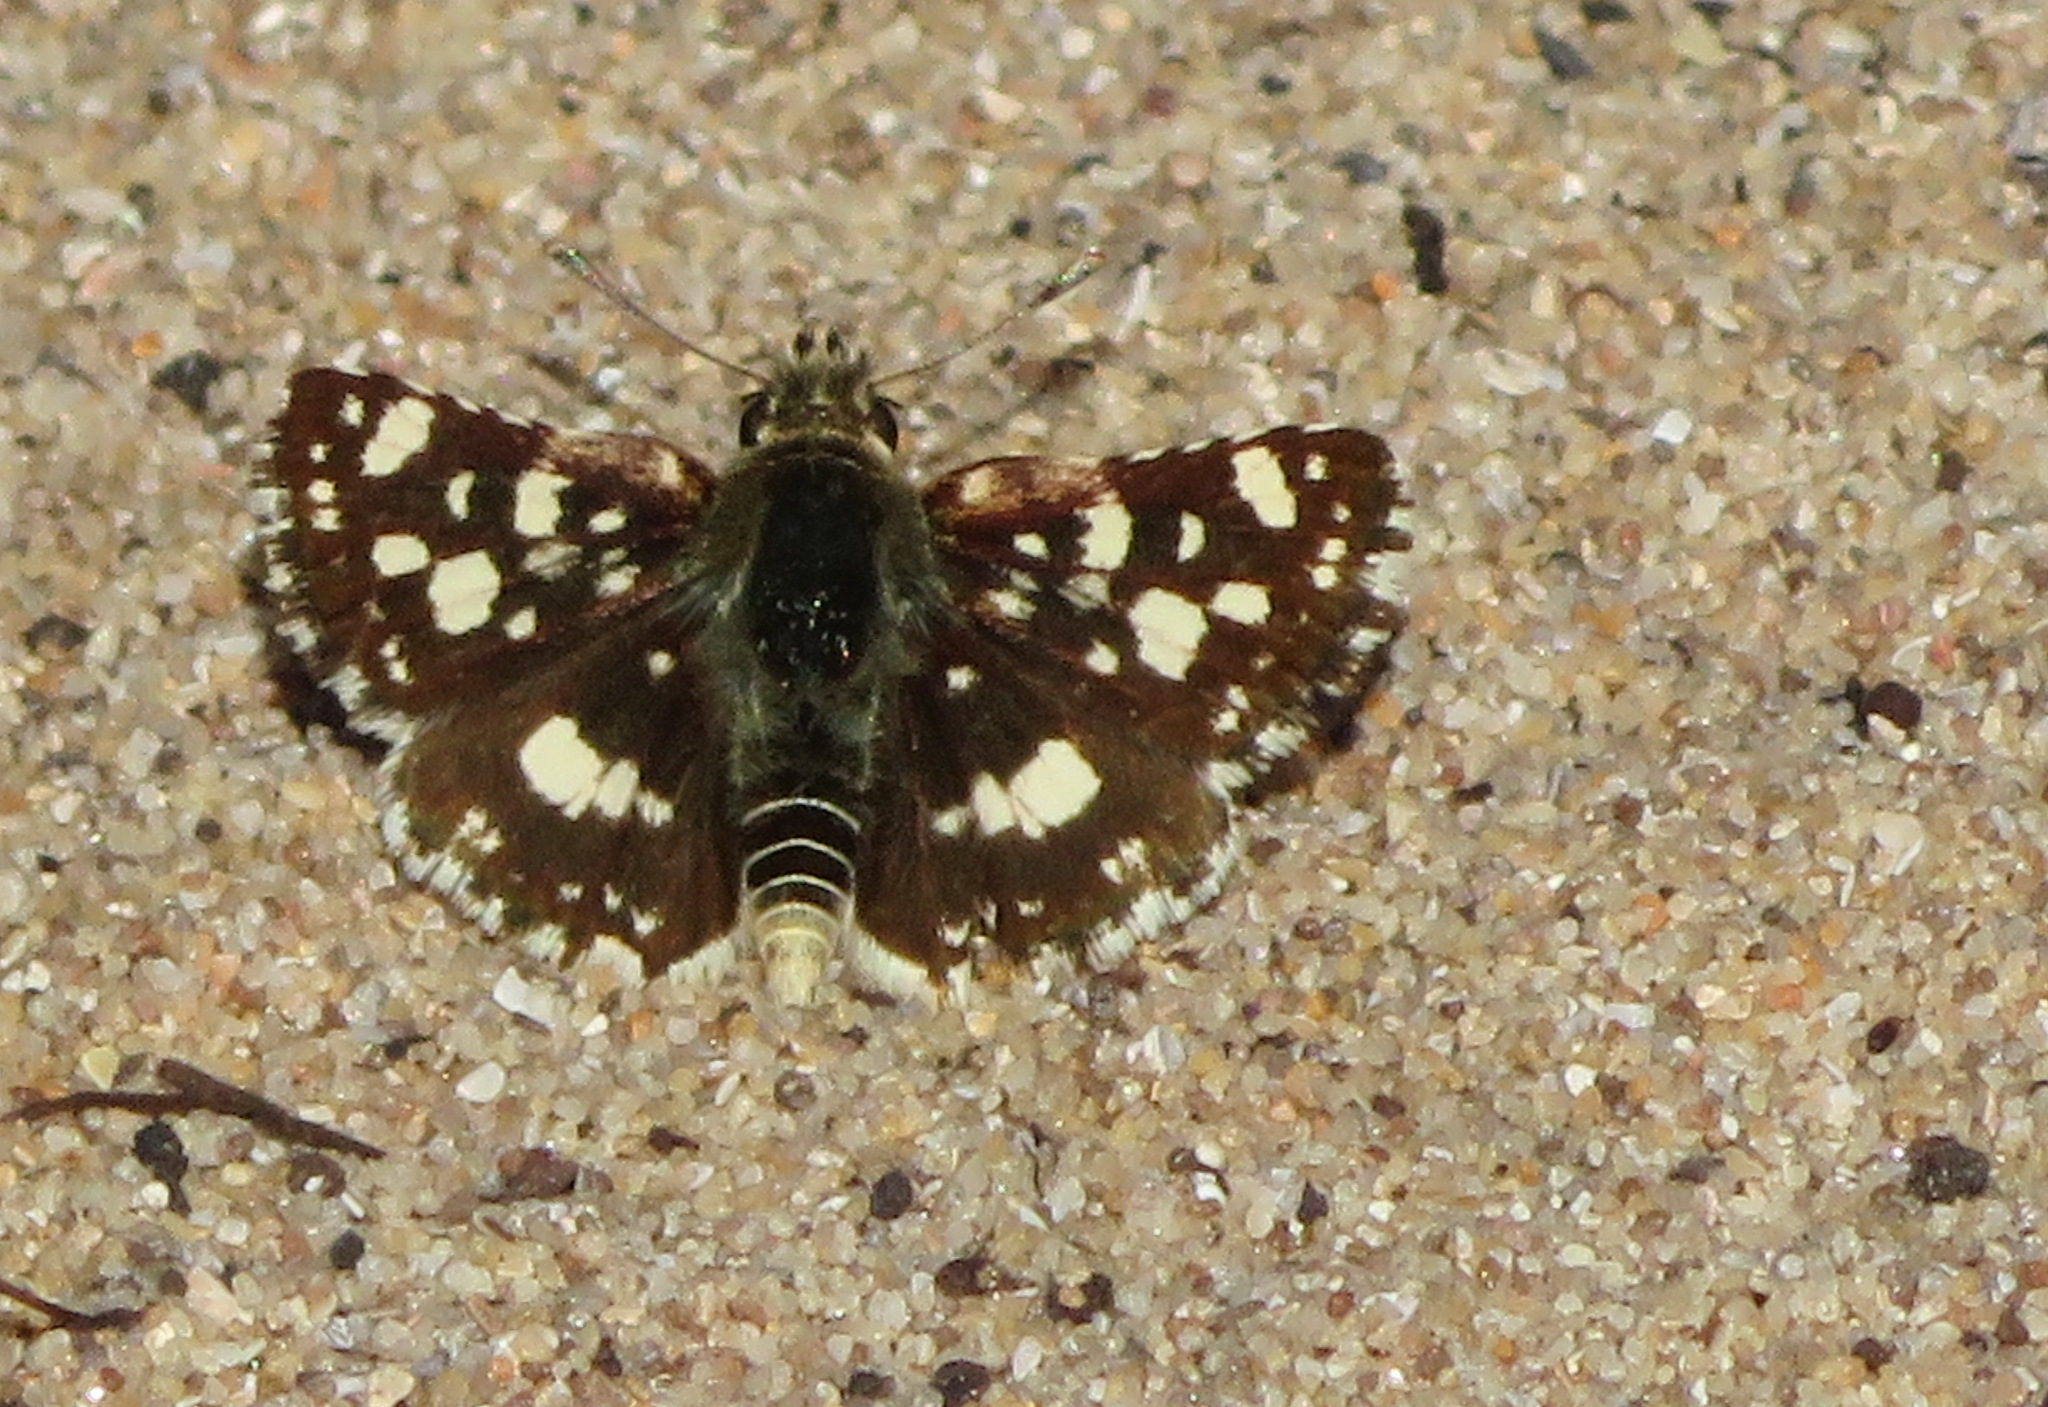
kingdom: Animalia
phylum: Arthropoda
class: Insecta
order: Lepidoptera
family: Hesperiidae
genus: Spialia
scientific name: Spialia spio
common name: Mountain sandman
